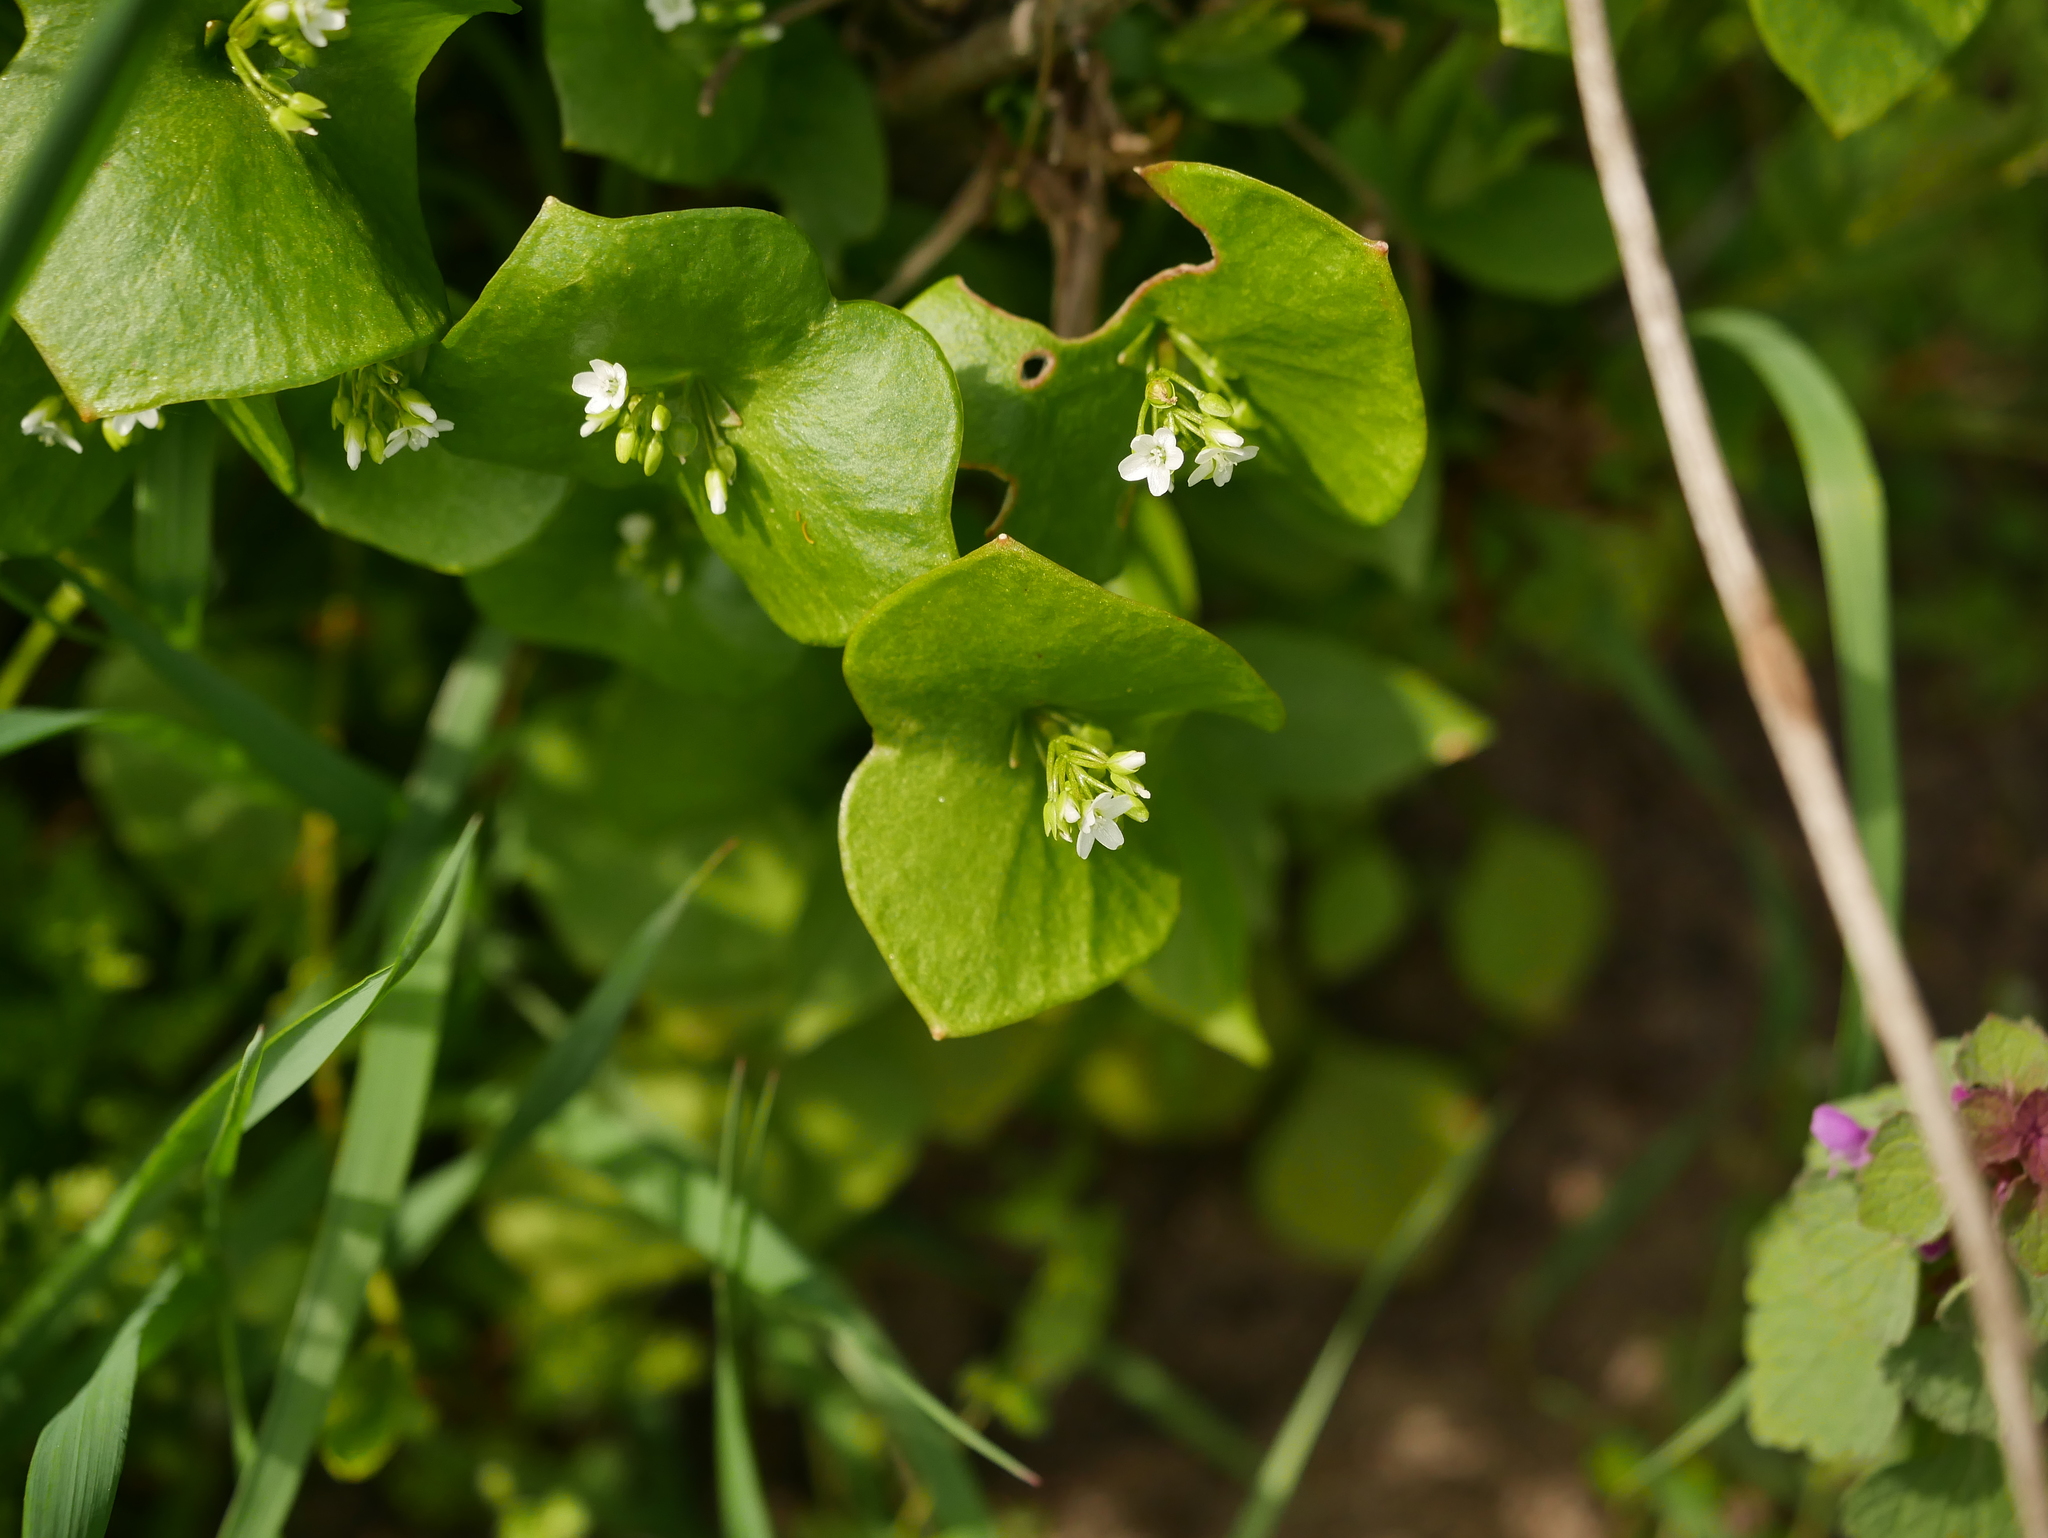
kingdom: Plantae
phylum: Tracheophyta
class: Magnoliopsida
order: Caryophyllales
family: Montiaceae
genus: Claytonia
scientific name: Claytonia perfoliata
